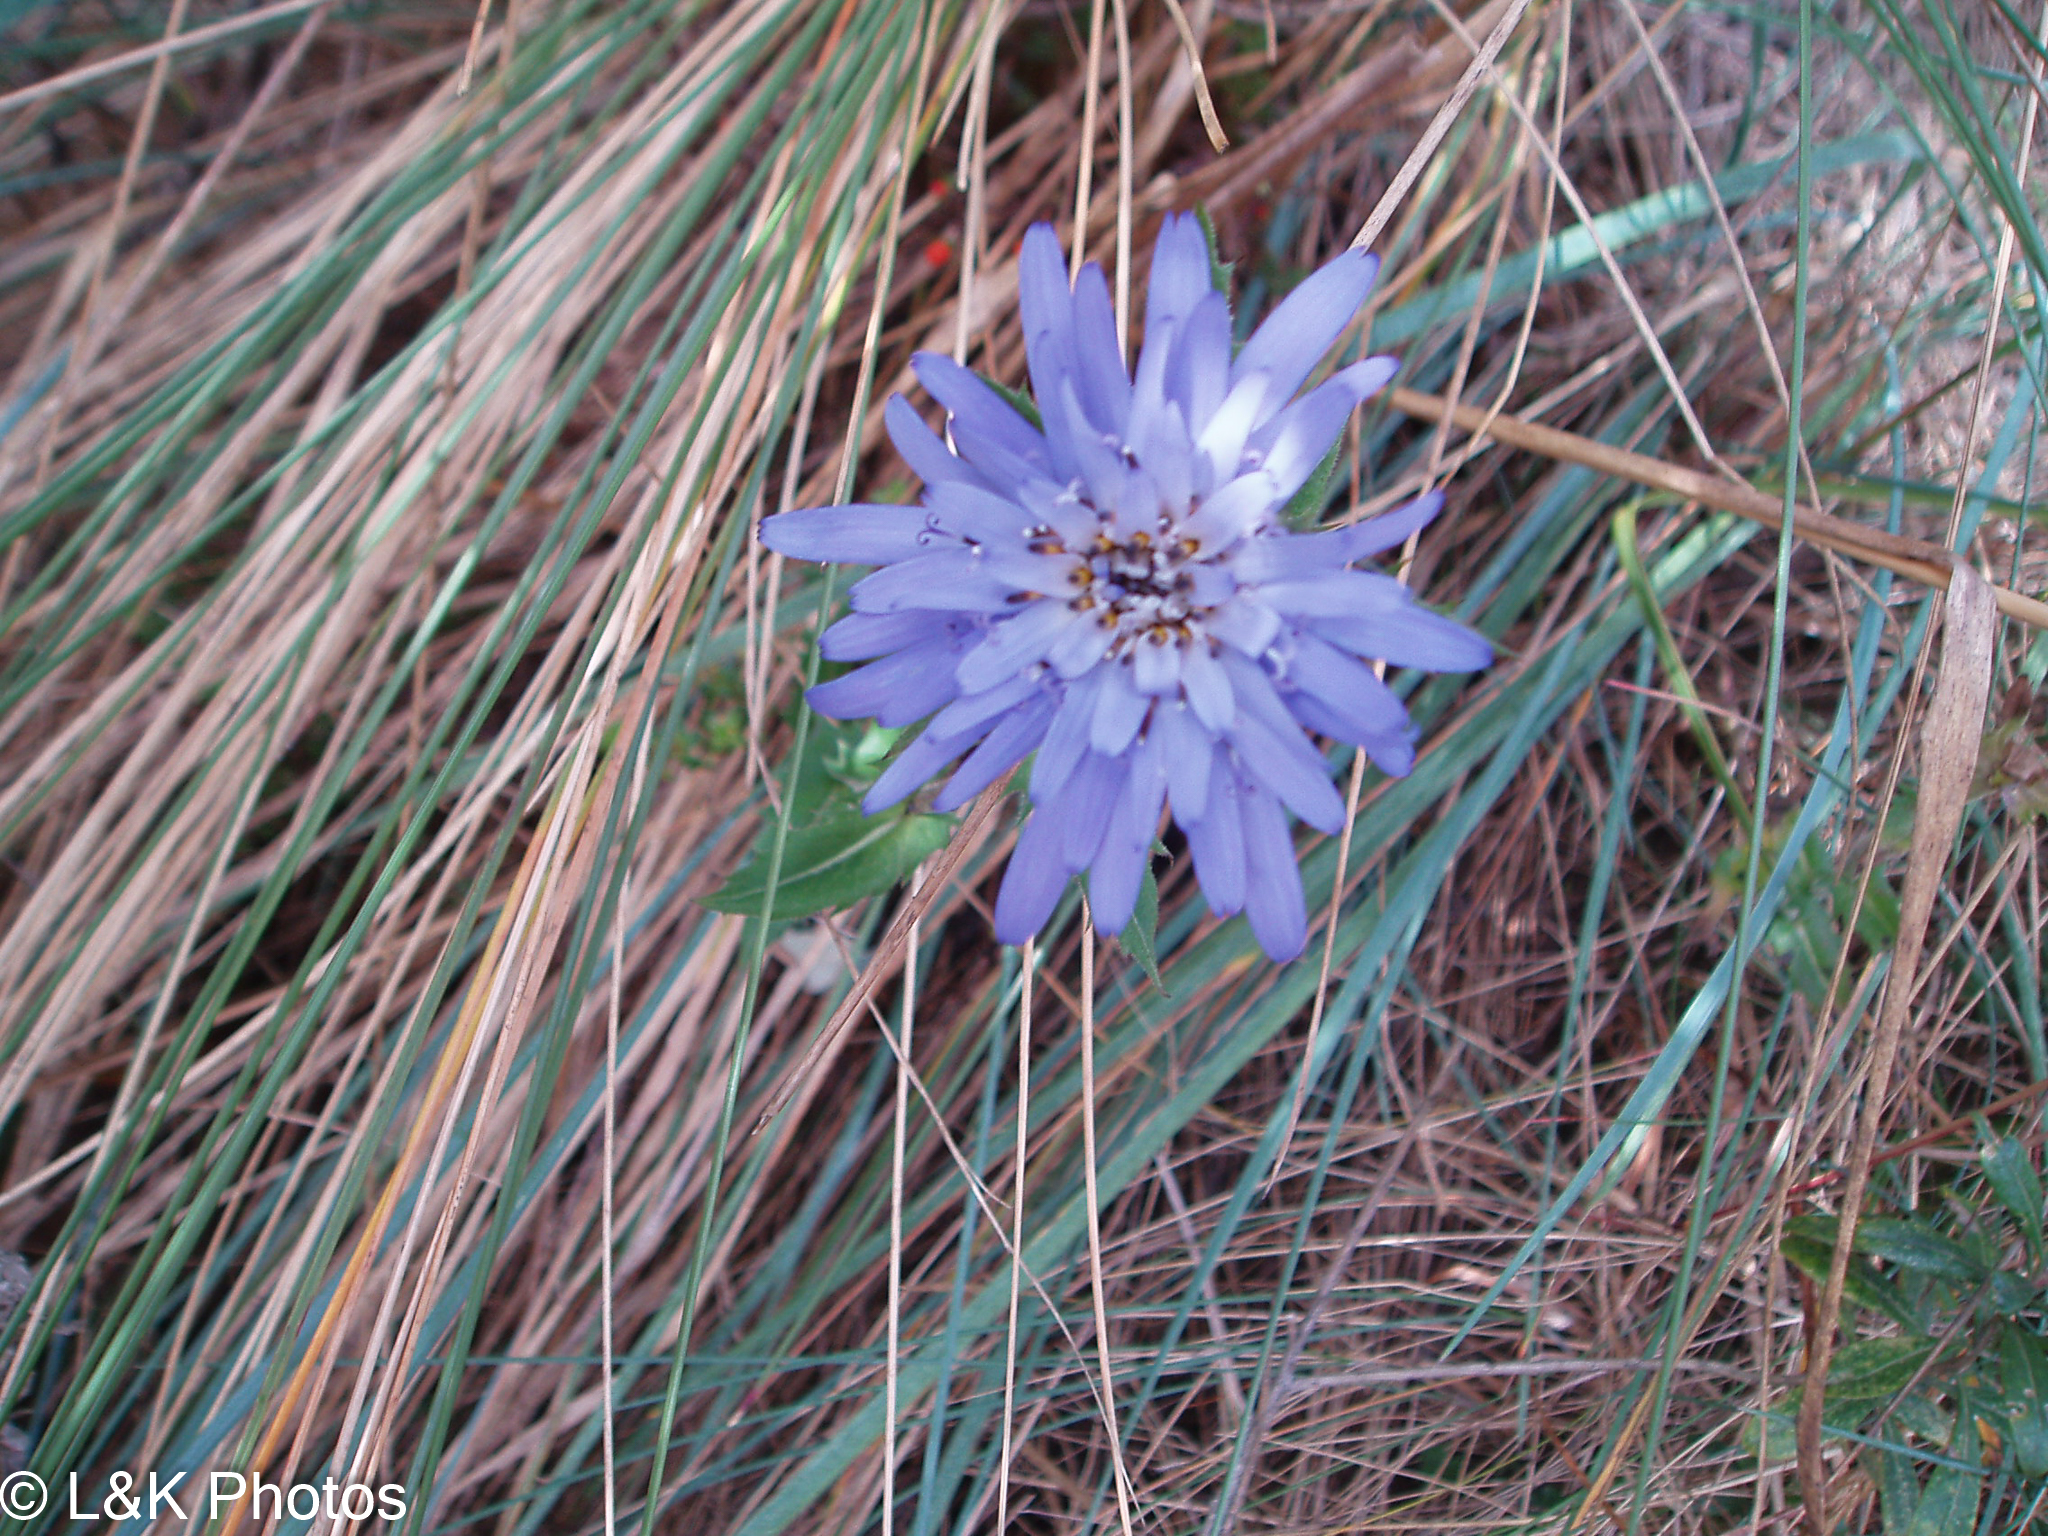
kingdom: Plantae
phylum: Tracheophyta
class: Magnoliopsida
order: Asterales
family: Asteraceae
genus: Perezia
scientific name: Perezia pungens
